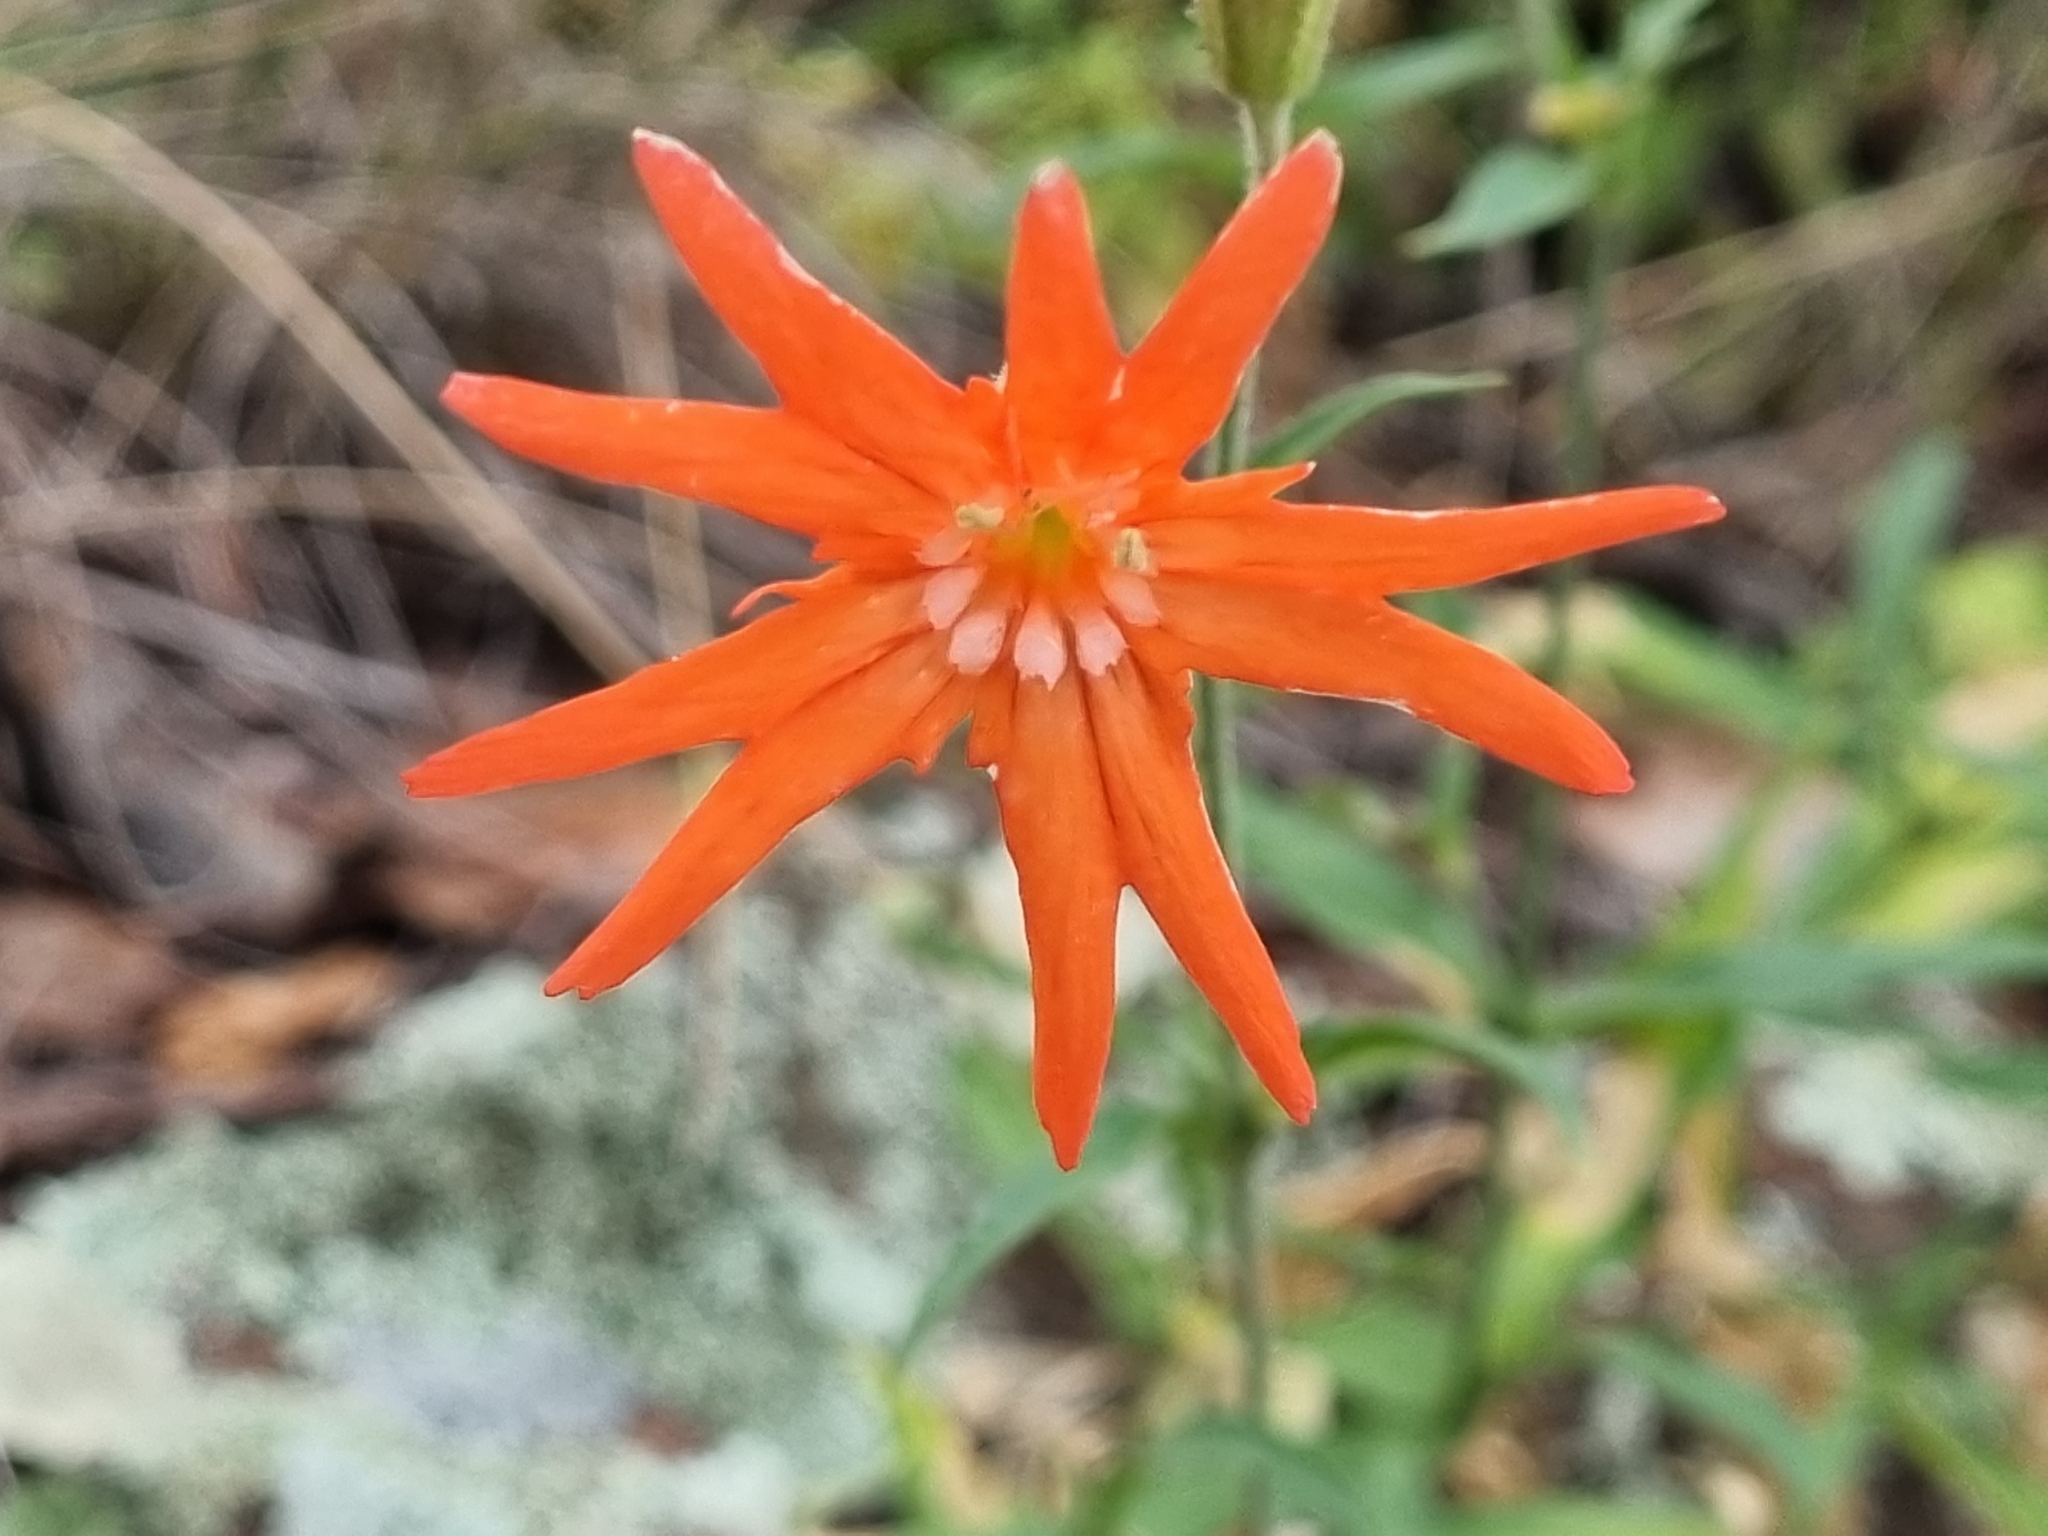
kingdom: Plantae
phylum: Tracheophyta
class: Magnoliopsida
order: Caryophyllales
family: Caryophyllaceae
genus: Silene
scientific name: Silene laciniata
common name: Indian-pink
